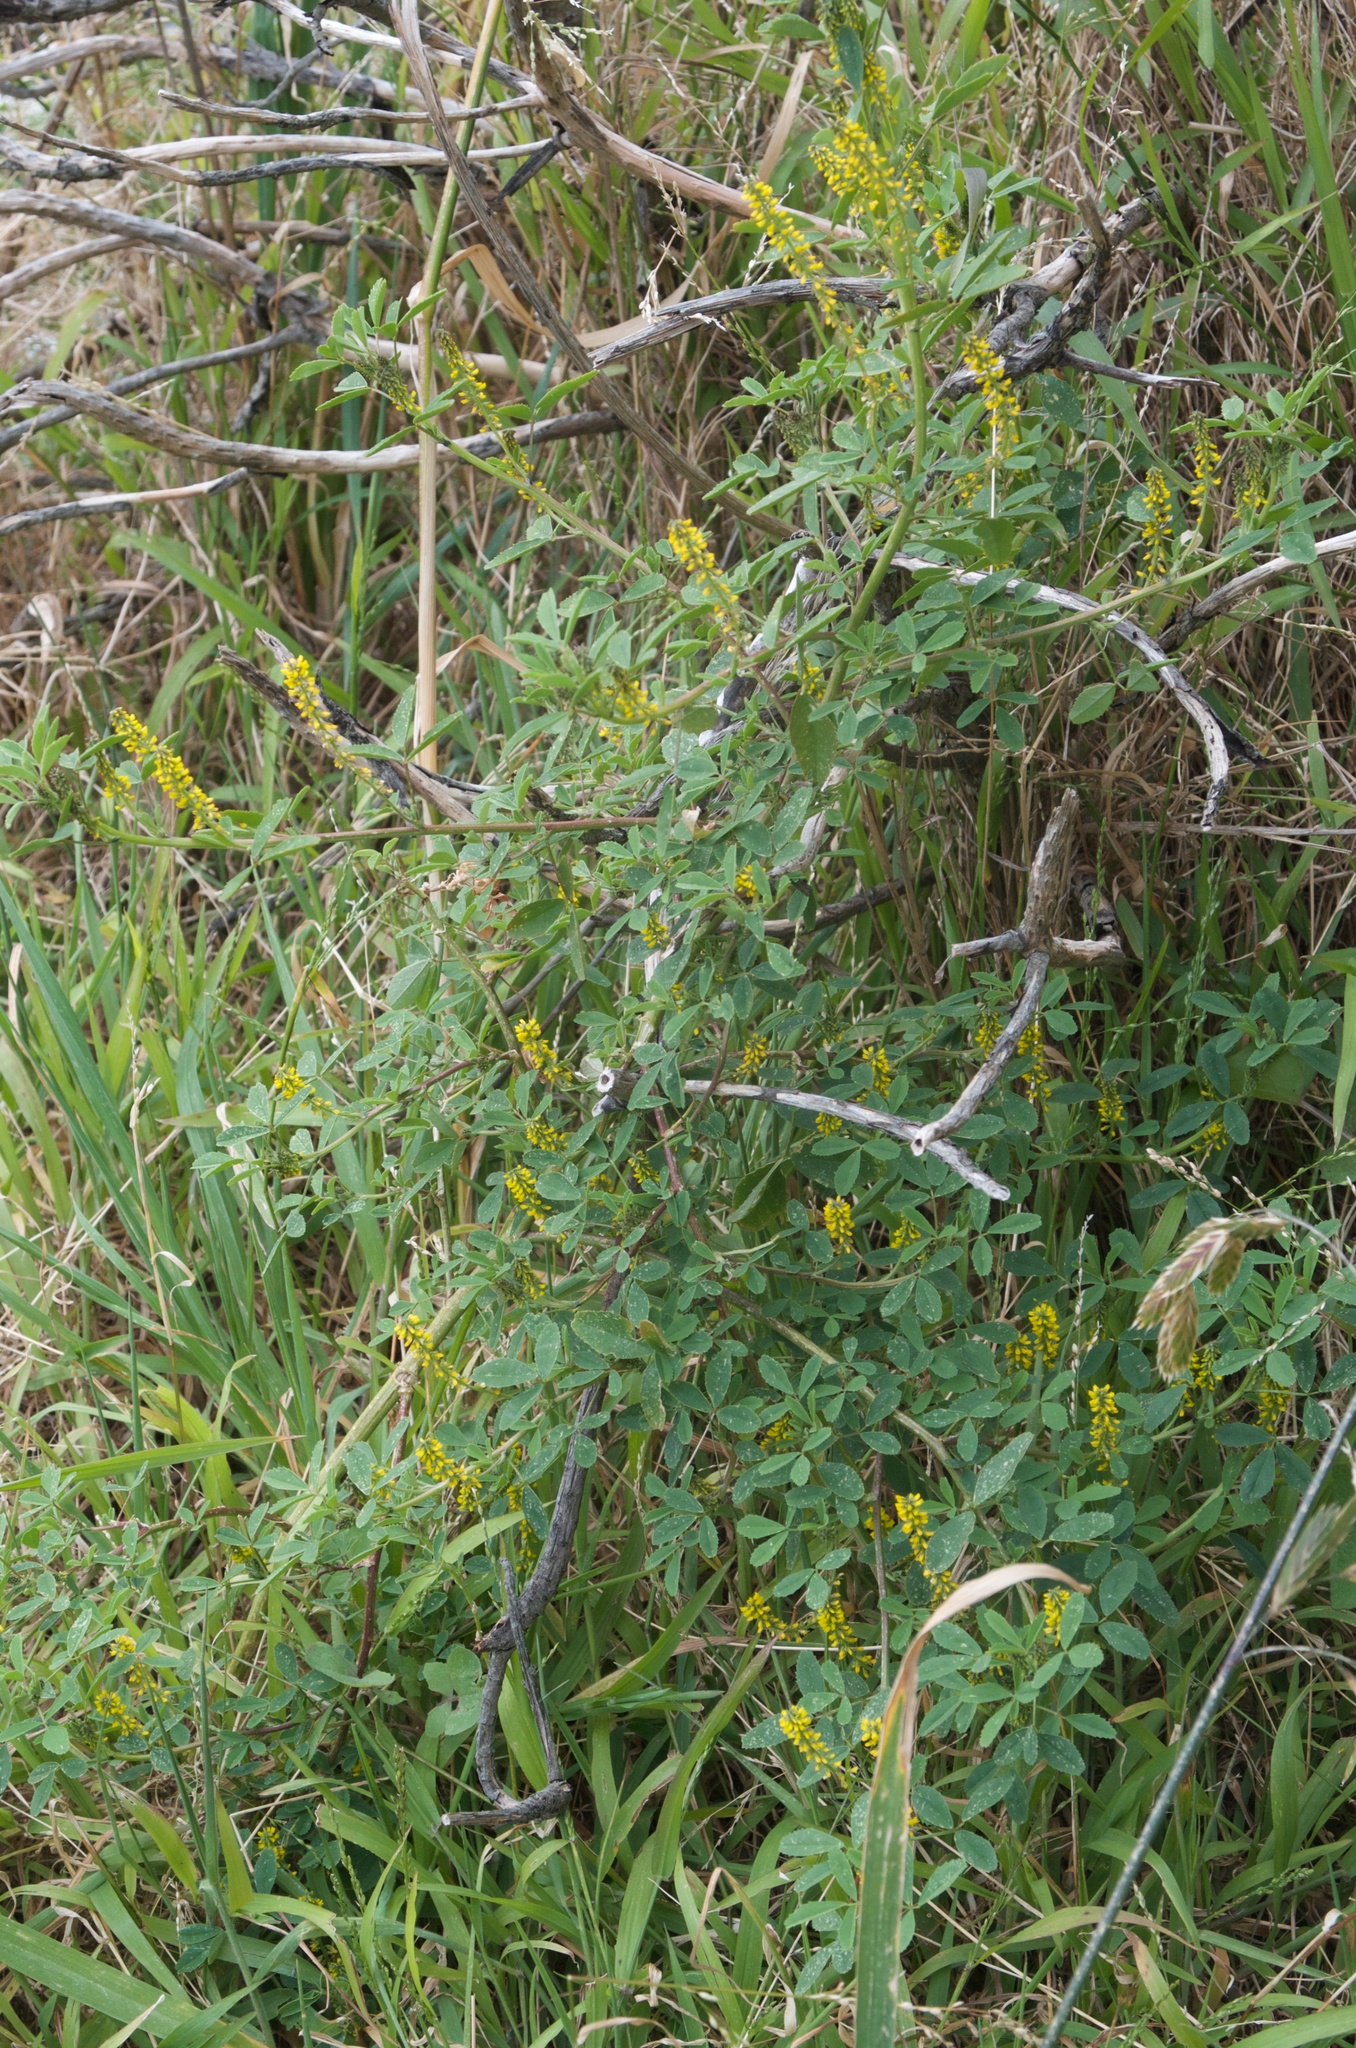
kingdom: Plantae
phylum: Tracheophyta
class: Magnoliopsida
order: Fabales
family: Fabaceae
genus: Melilotus
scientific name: Melilotus indicus
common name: Small melilot
